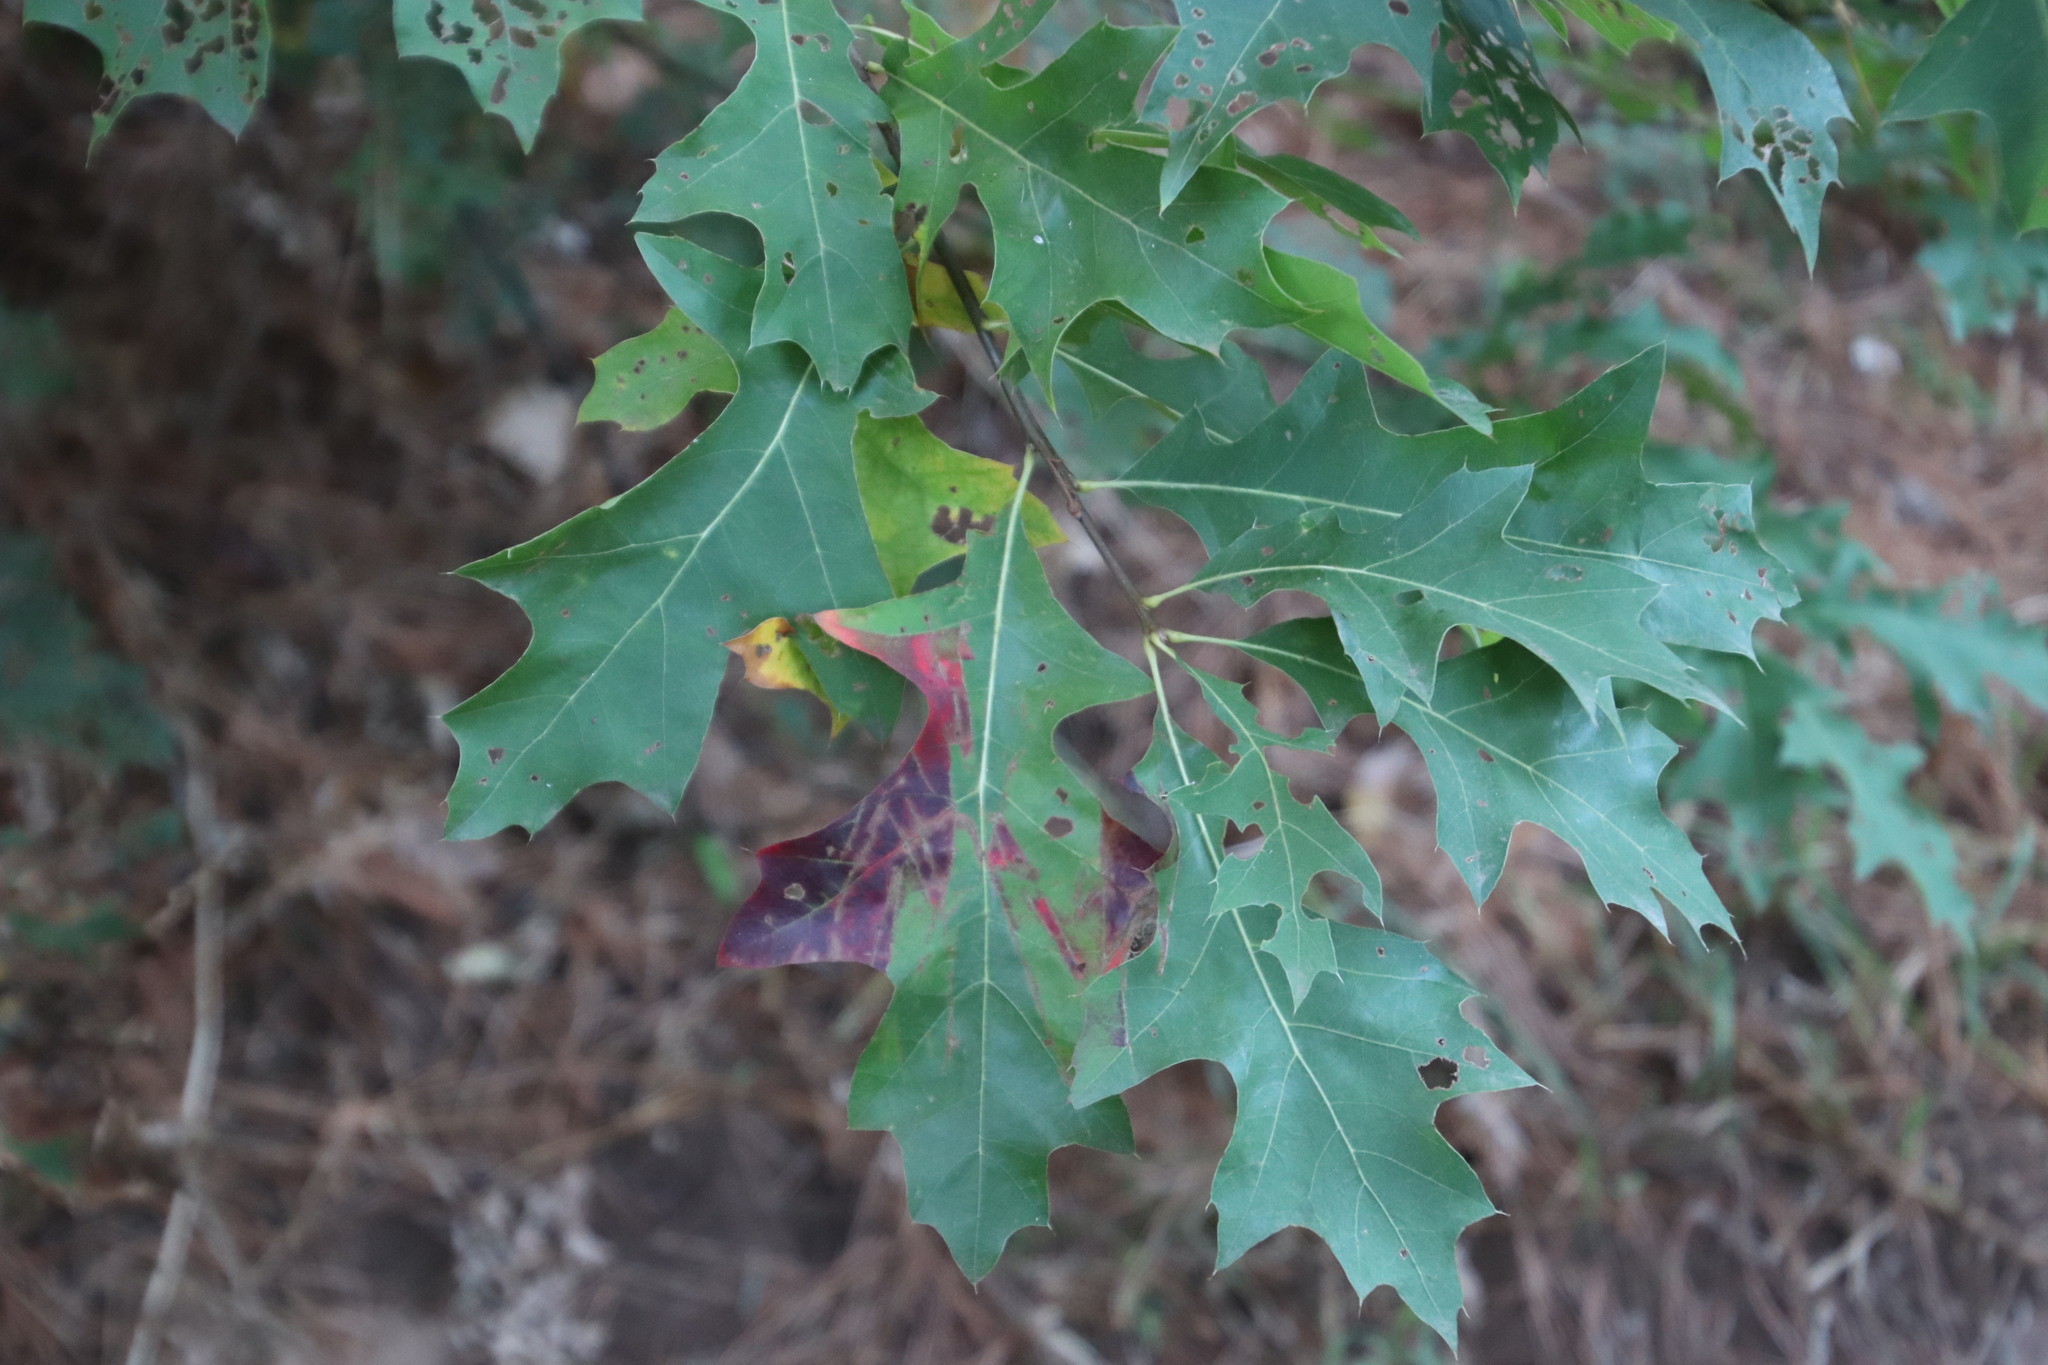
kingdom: Plantae
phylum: Tracheophyta
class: Magnoliopsida
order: Fagales
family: Fagaceae
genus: Quercus
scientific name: Quercus palustris
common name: Pin oak
